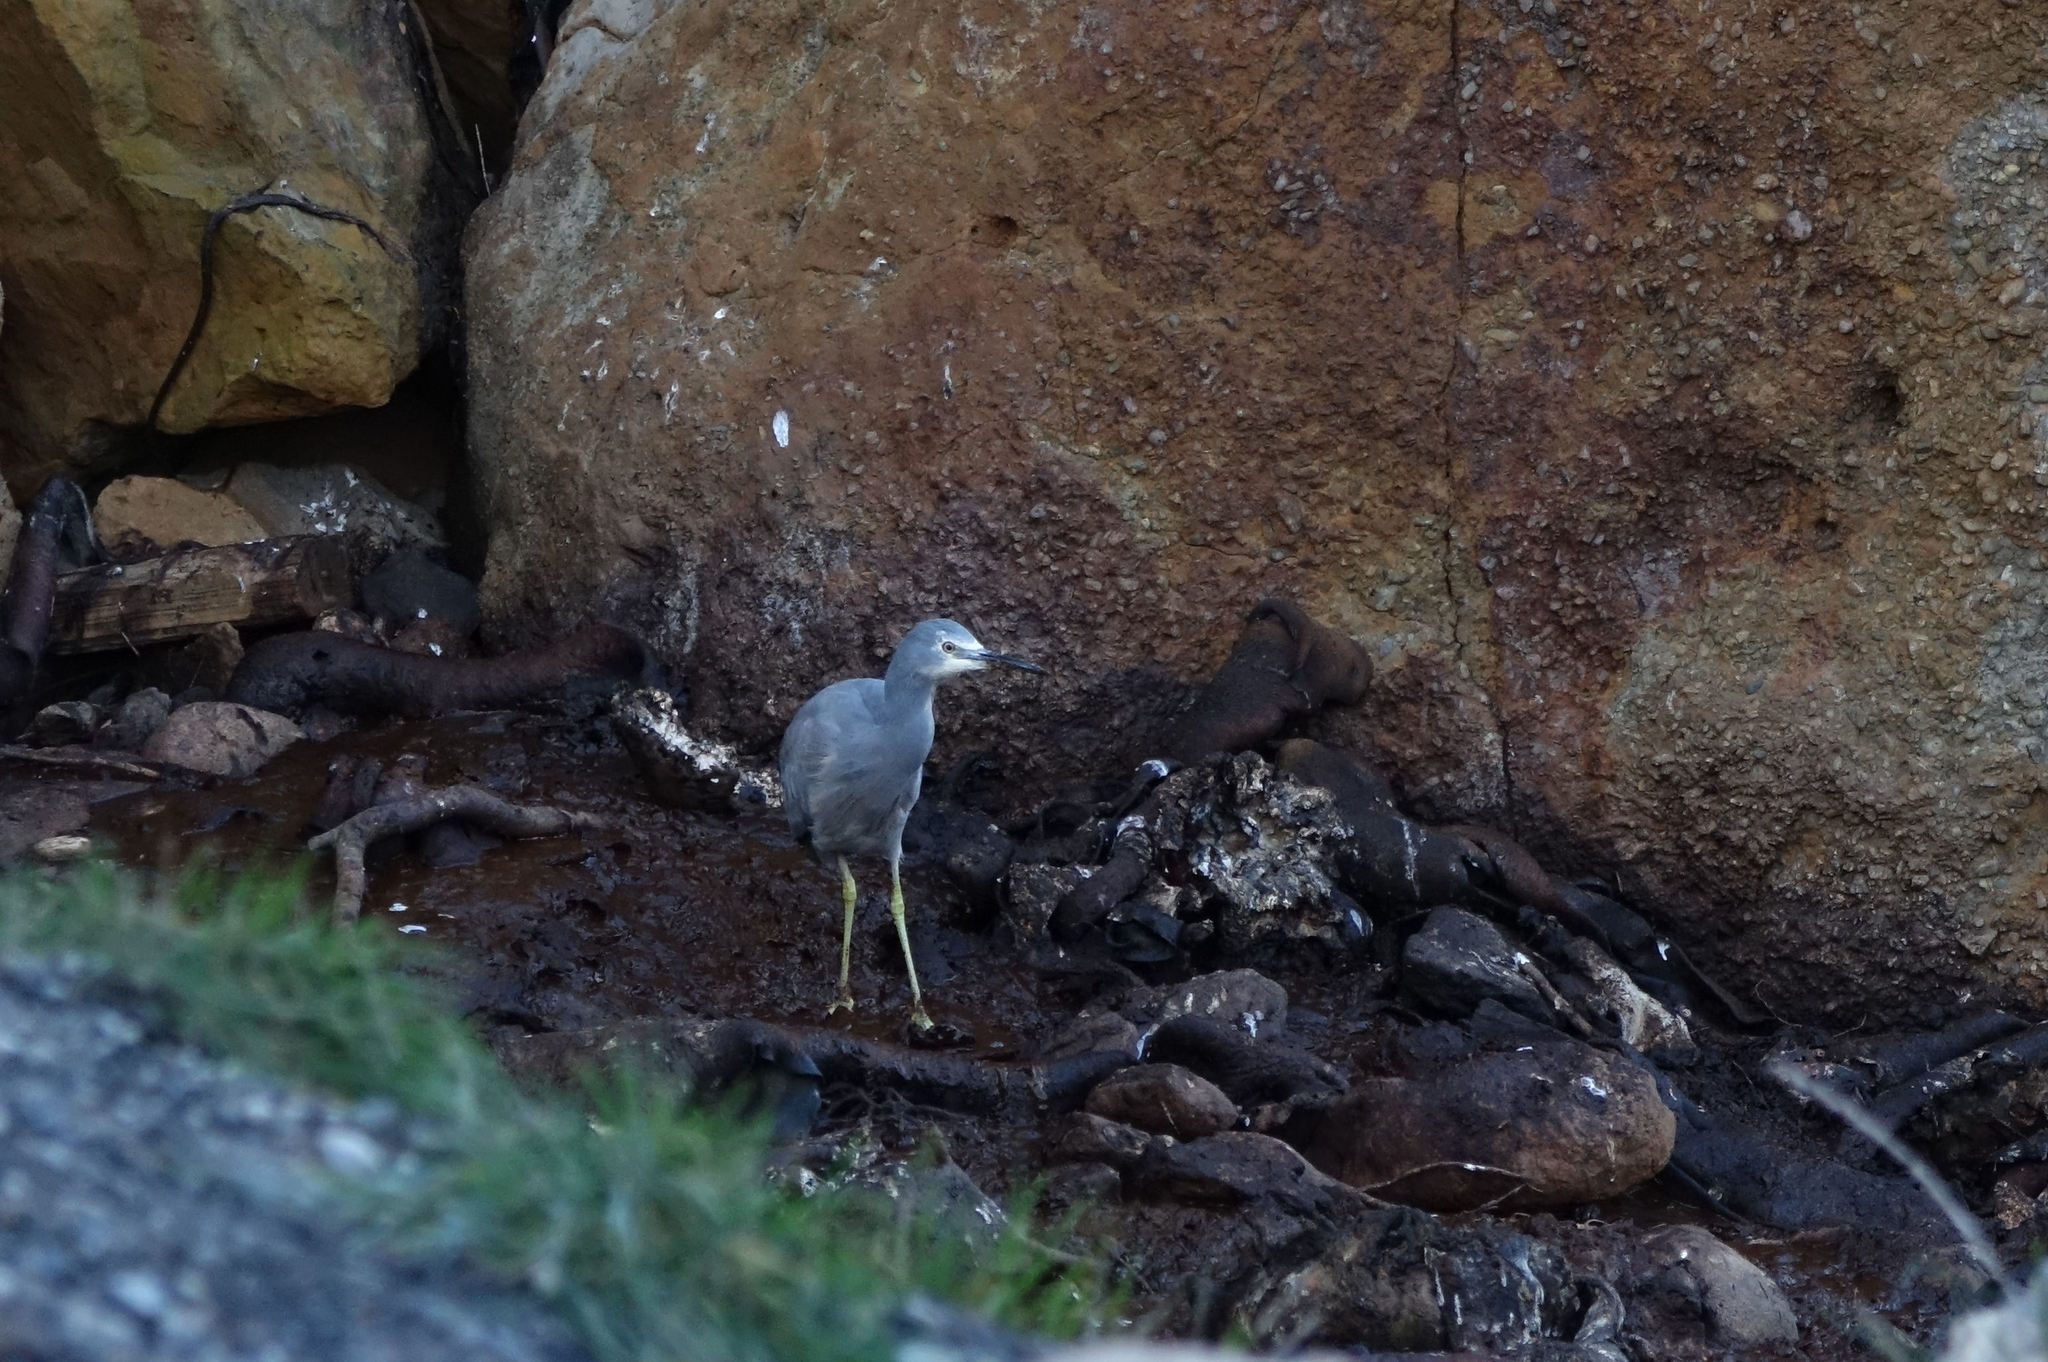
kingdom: Animalia
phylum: Chordata
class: Aves
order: Pelecaniformes
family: Ardeidae
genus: Egretta
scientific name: Egretta novaehollandiae
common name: White-faced heron
